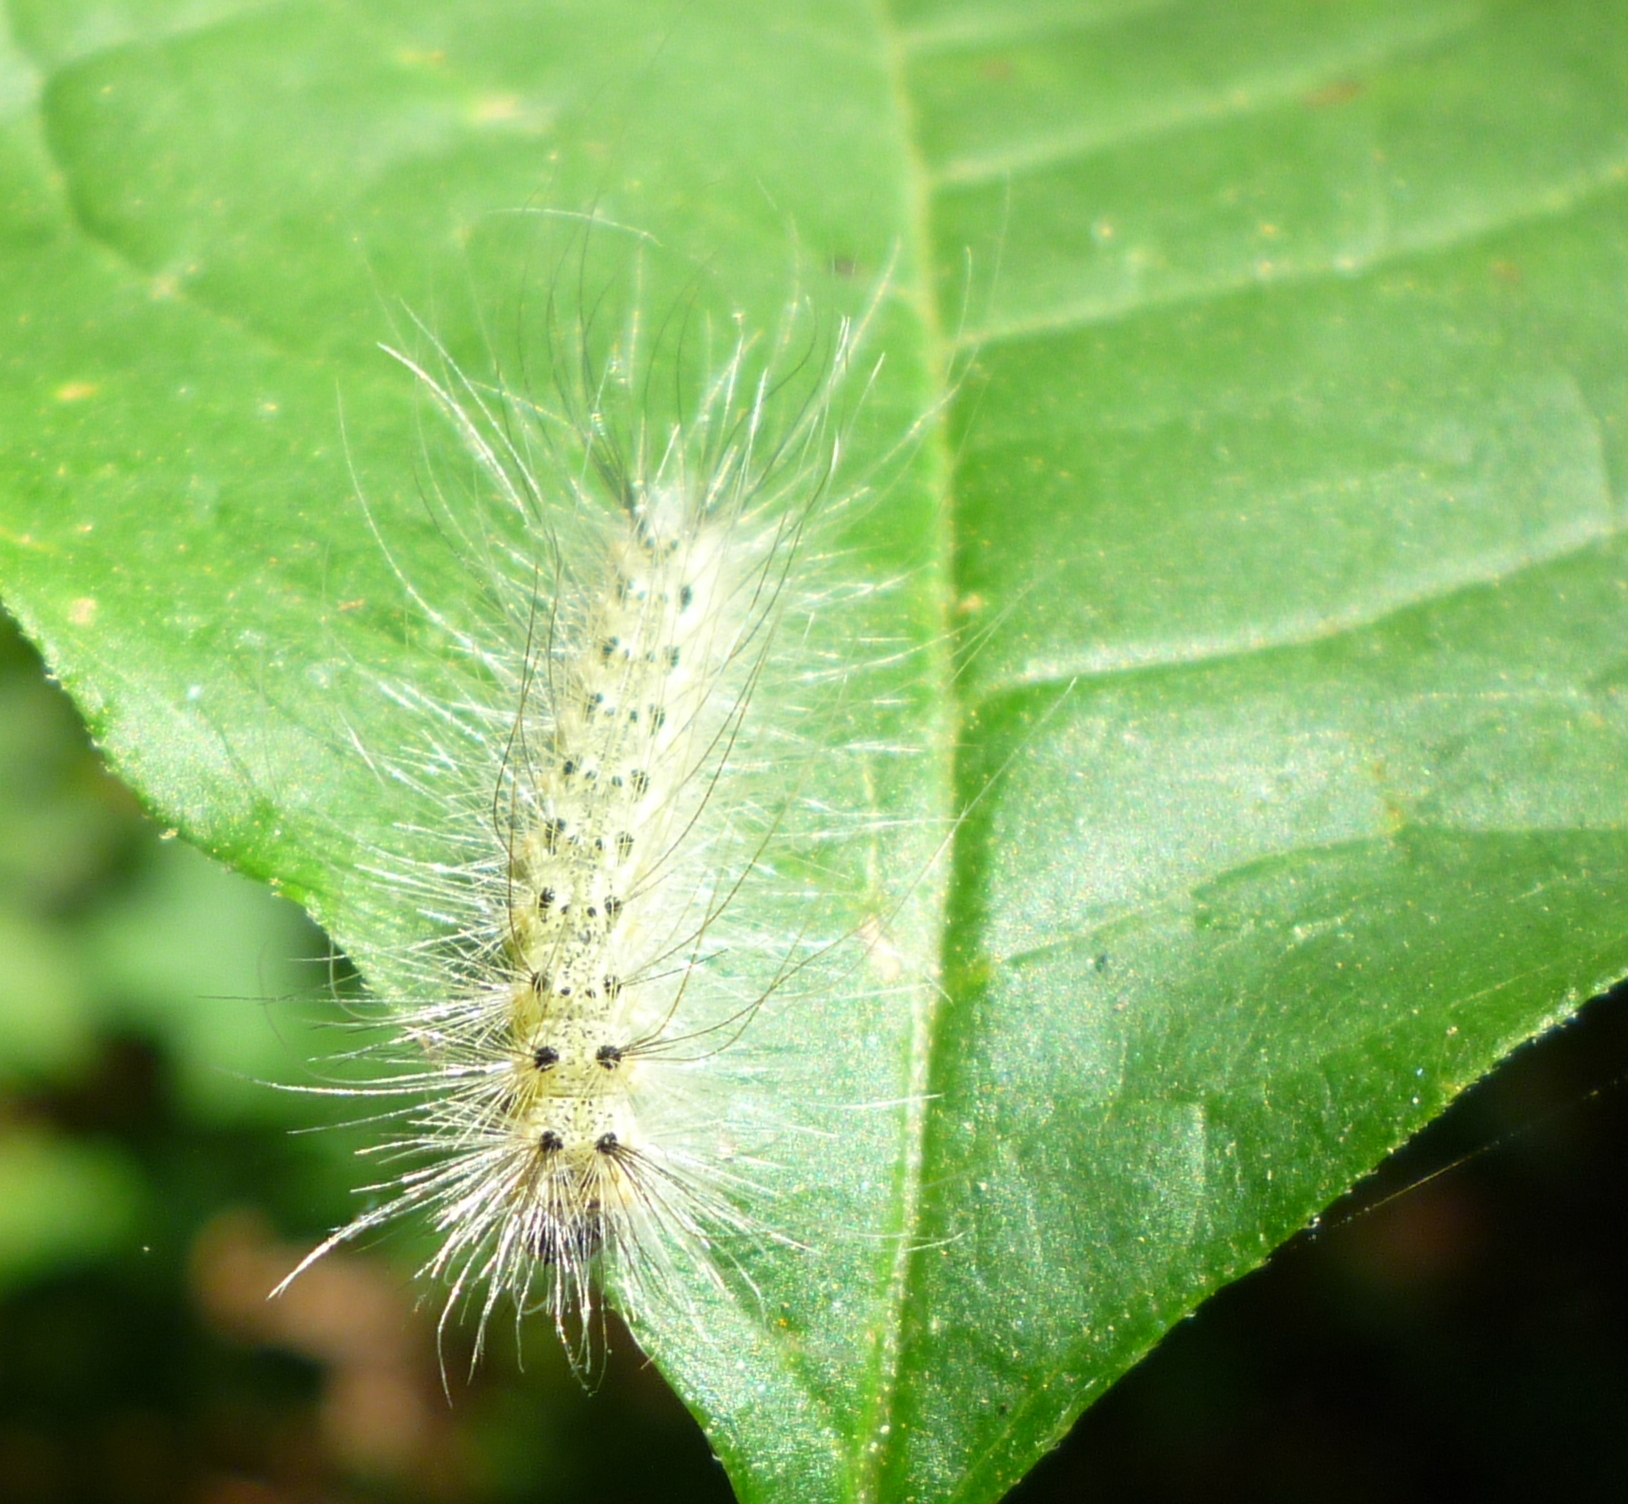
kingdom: Animalia
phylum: Arthropoda
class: Insecta
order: Lepidoptera
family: Erebidae
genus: Hyphantria
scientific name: Hyphantria cunea
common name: American white moth
